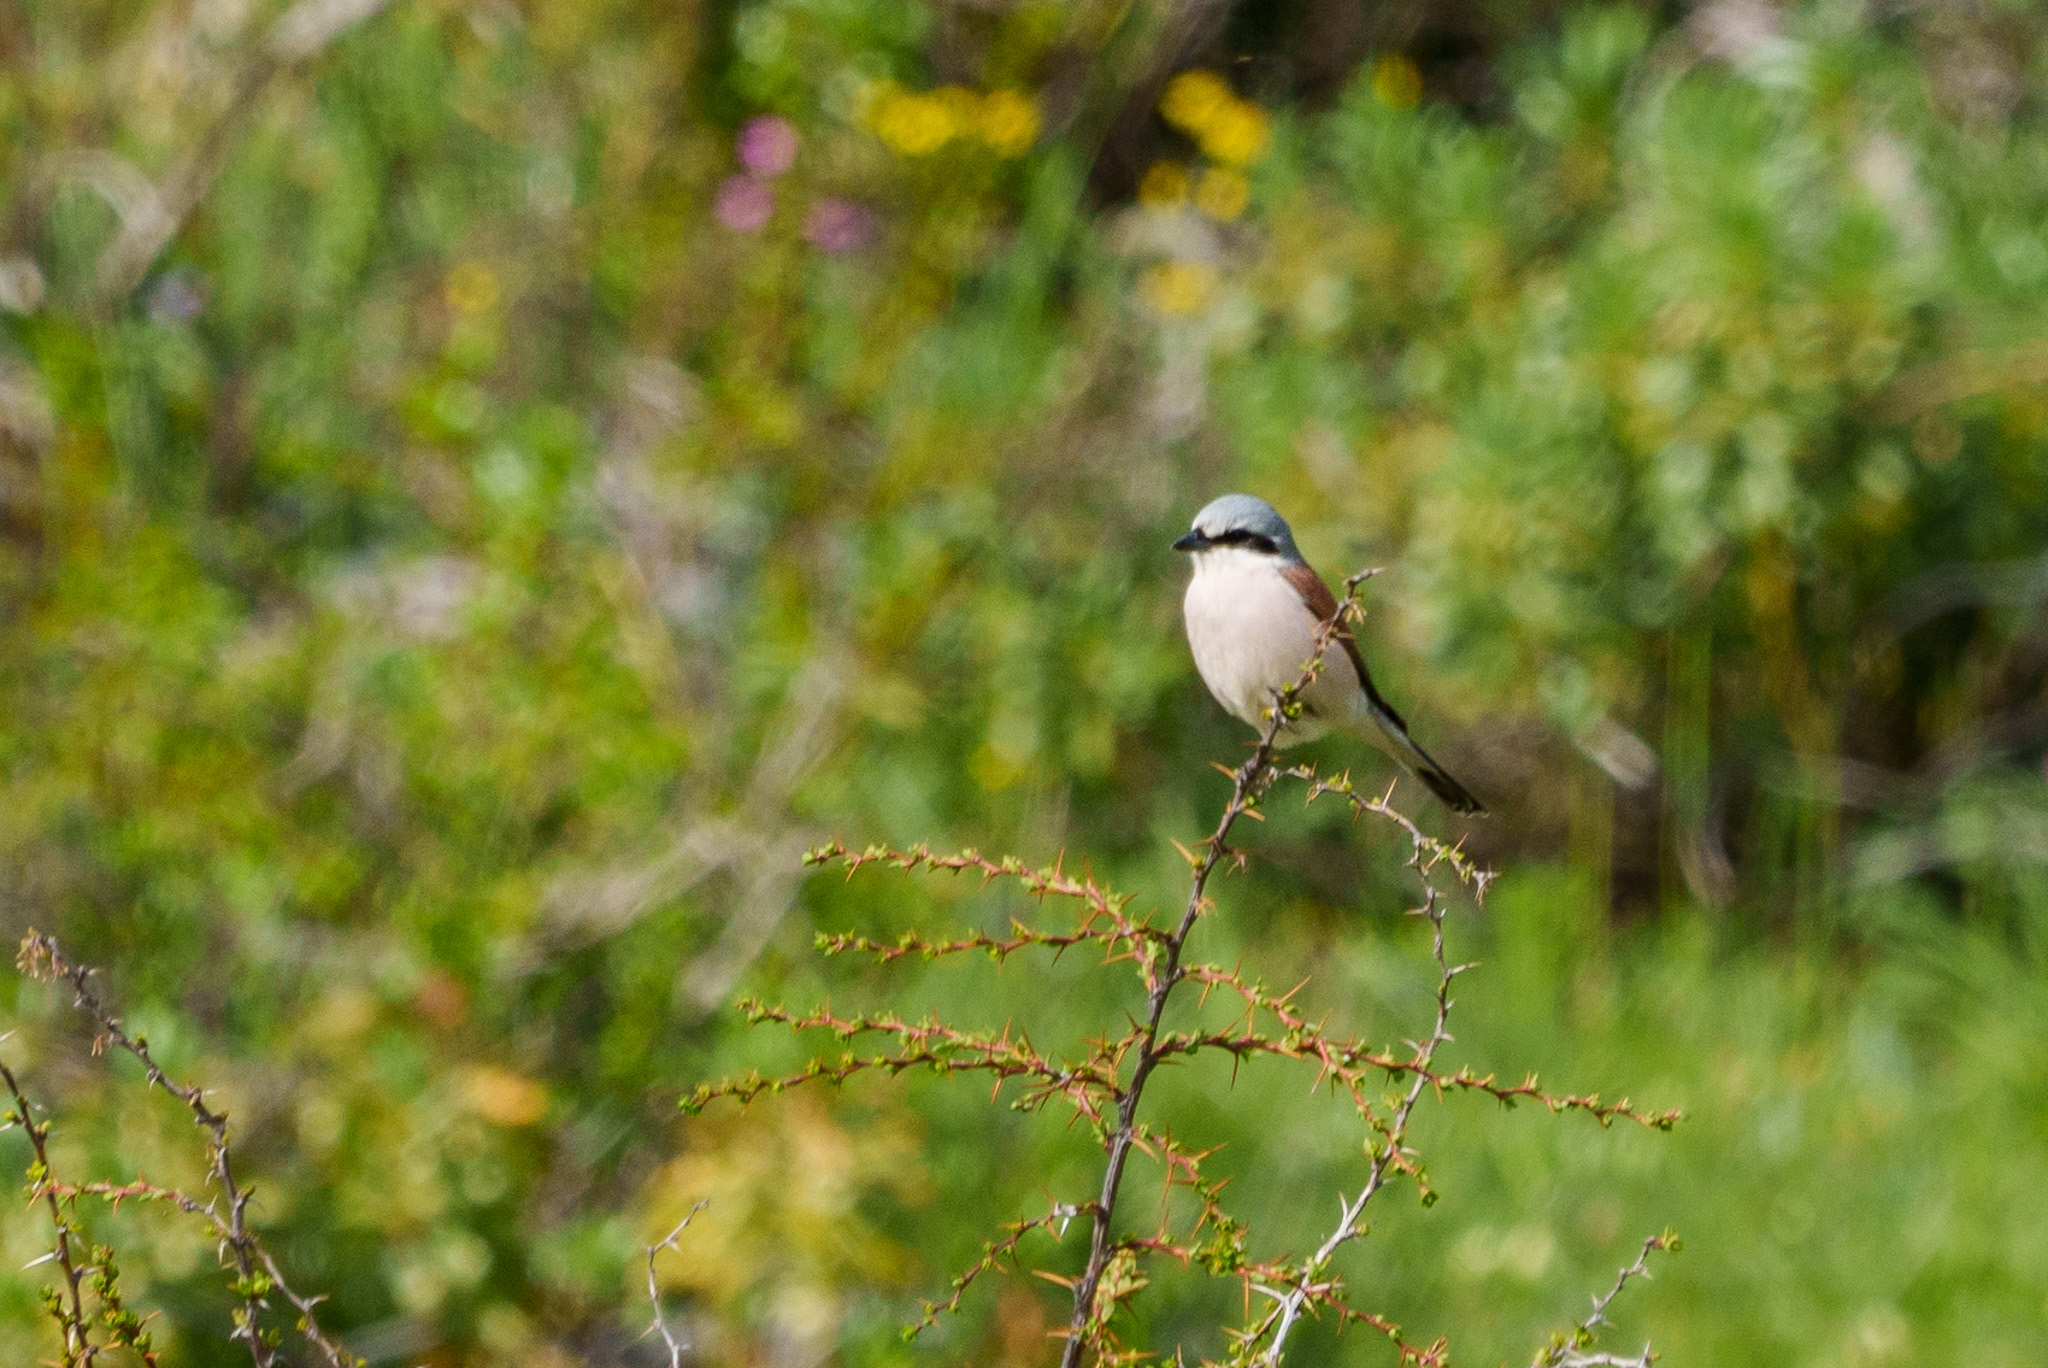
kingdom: Animalia
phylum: Chordata
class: Aves
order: Passeriformes
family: Laniidae
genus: Lanius
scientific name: Lanius collurio
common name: Red-backed shrike
